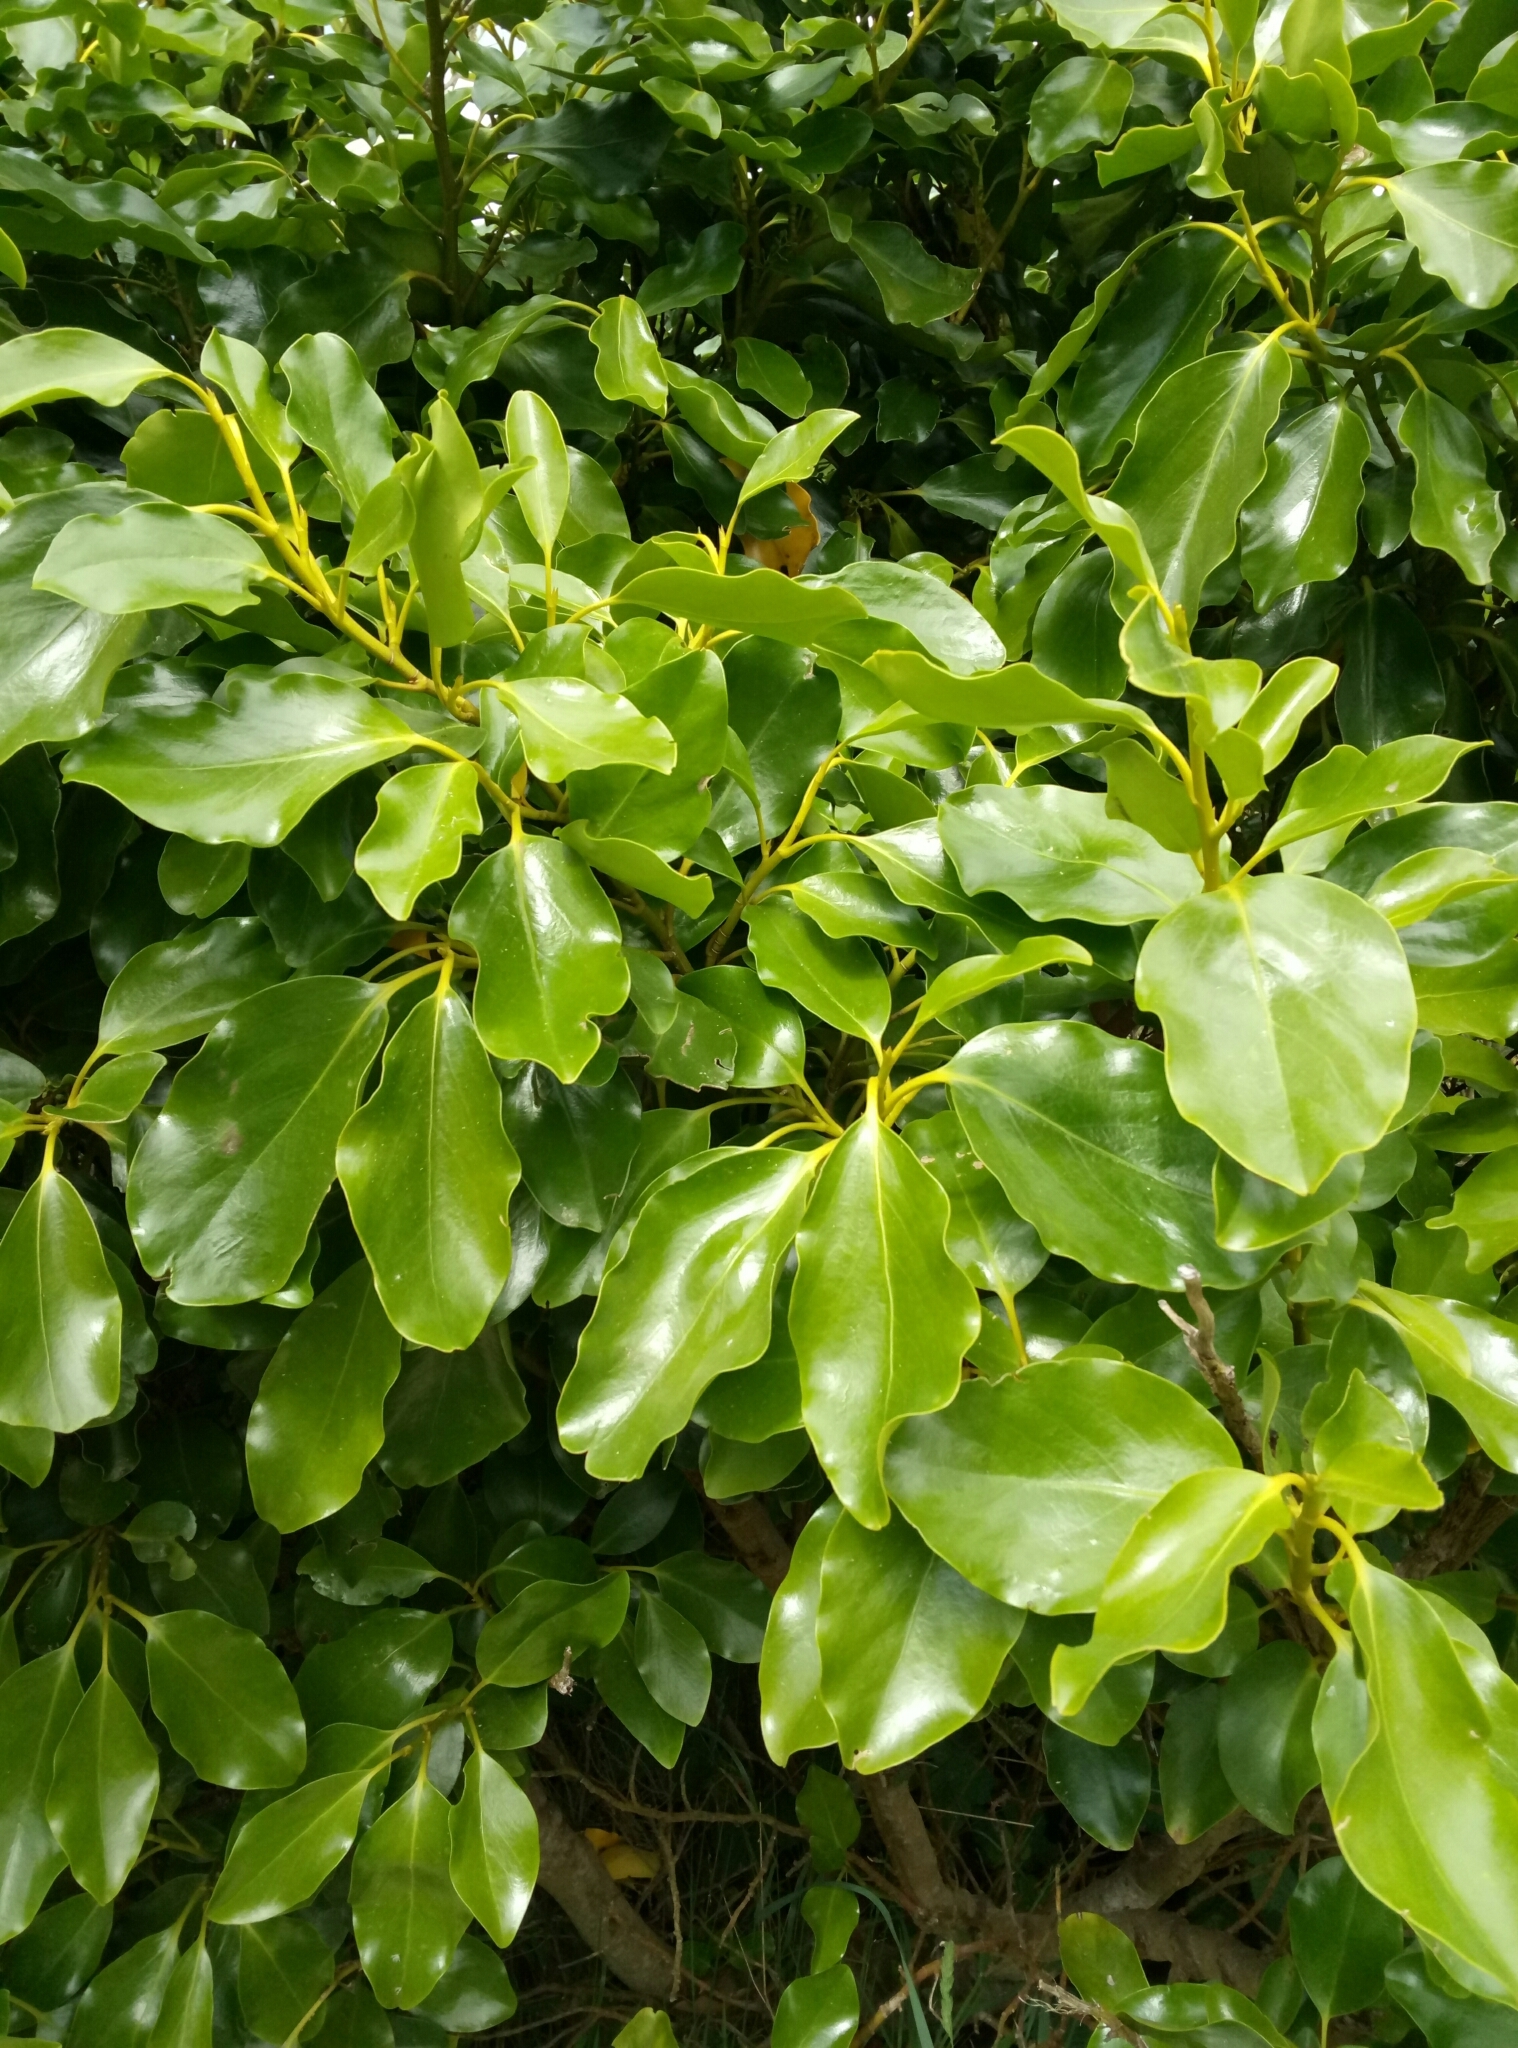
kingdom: Plantae
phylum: Tracheophyta
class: Magnoliopsida
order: Apiales
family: Griseliniaceae
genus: Griselinia
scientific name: Griselinia littoralis
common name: New zealand broadleaf
